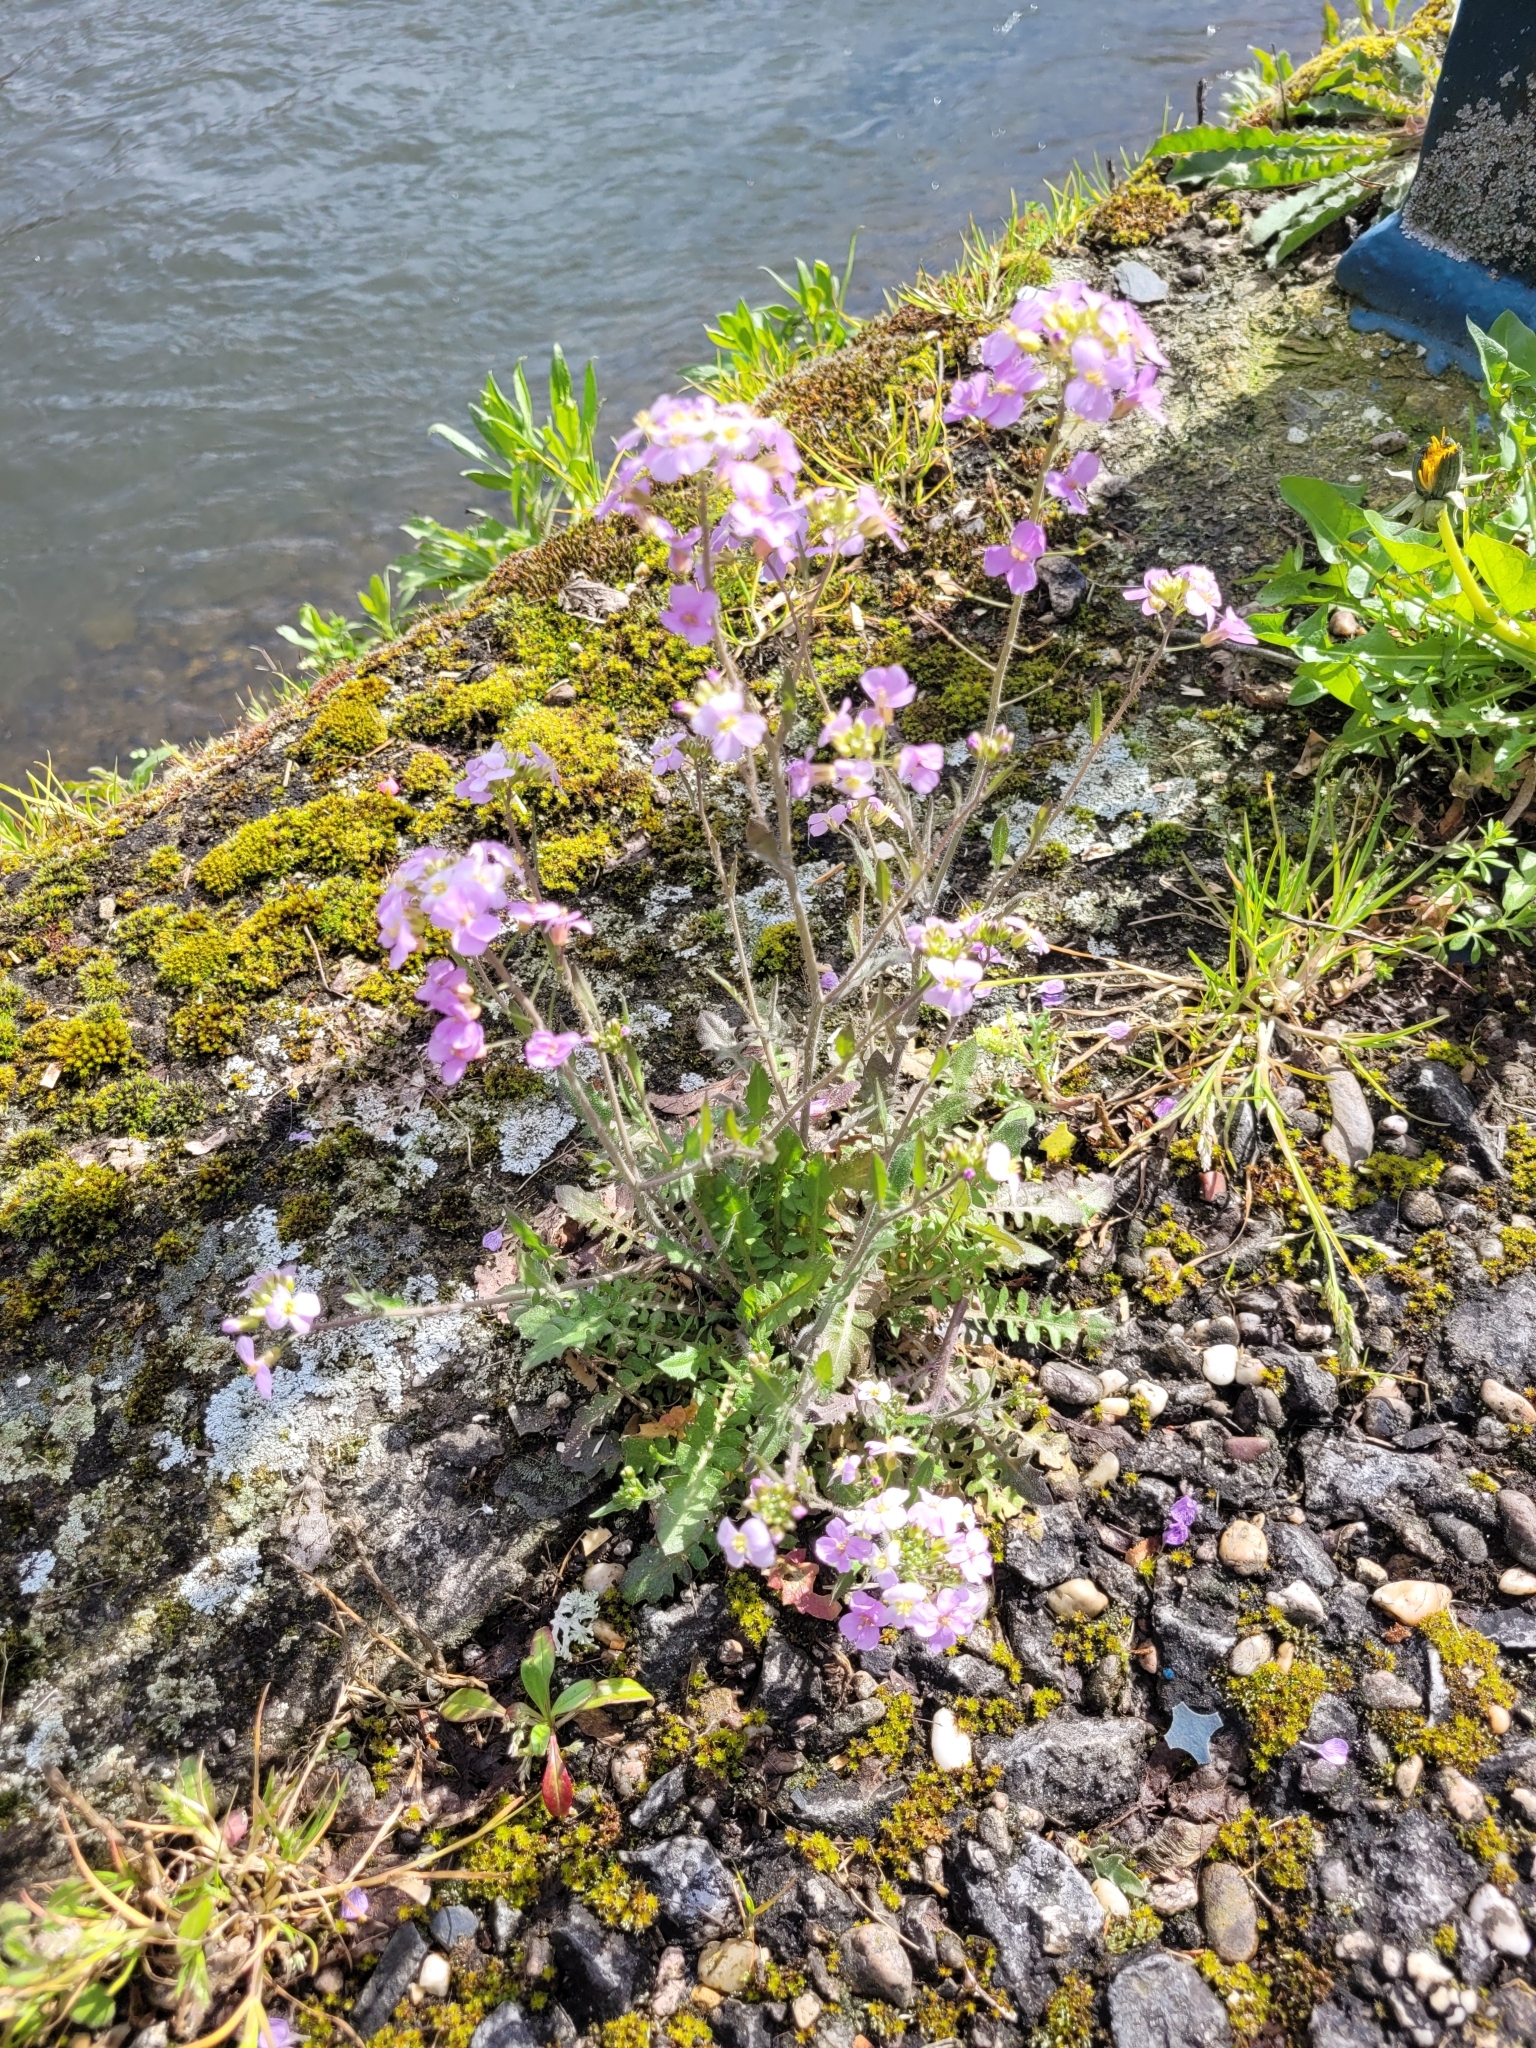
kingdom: Plantae
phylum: Tracheophyta
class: Magnoliopsida
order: Brassicales
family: Brassicaceae
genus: Arabidopsis
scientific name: Arabidopsis arenosa
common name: Sand rock-cress
